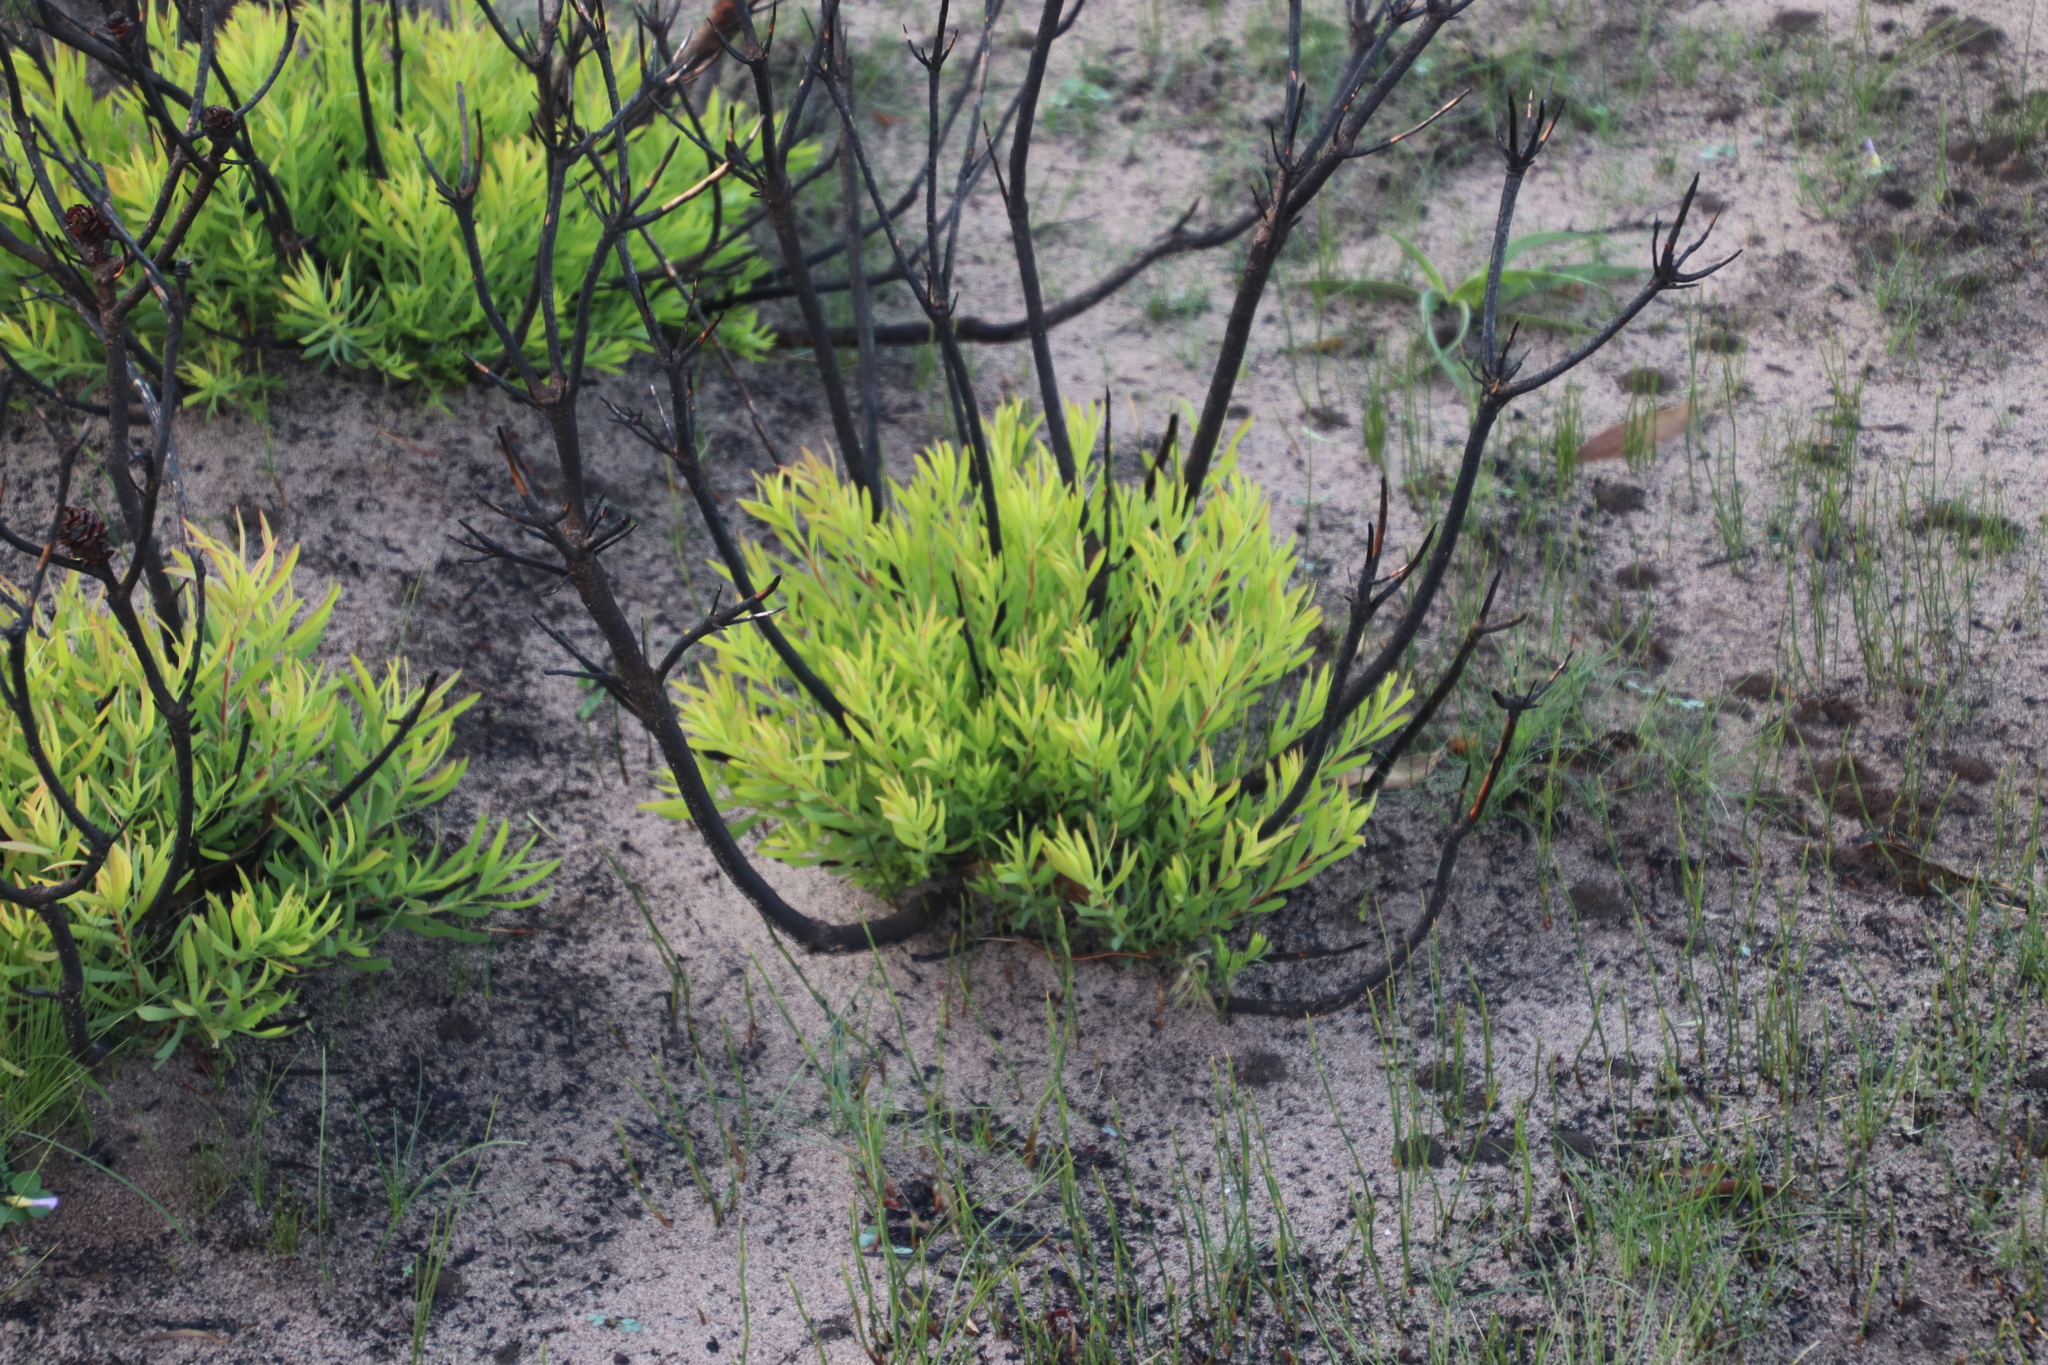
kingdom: Plantae
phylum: Tracheophyta
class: Magnoliopsida
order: Proteales
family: Proteaceae
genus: Leucadendron
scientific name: Leucadendron salignum
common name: Common sunshine conebush
